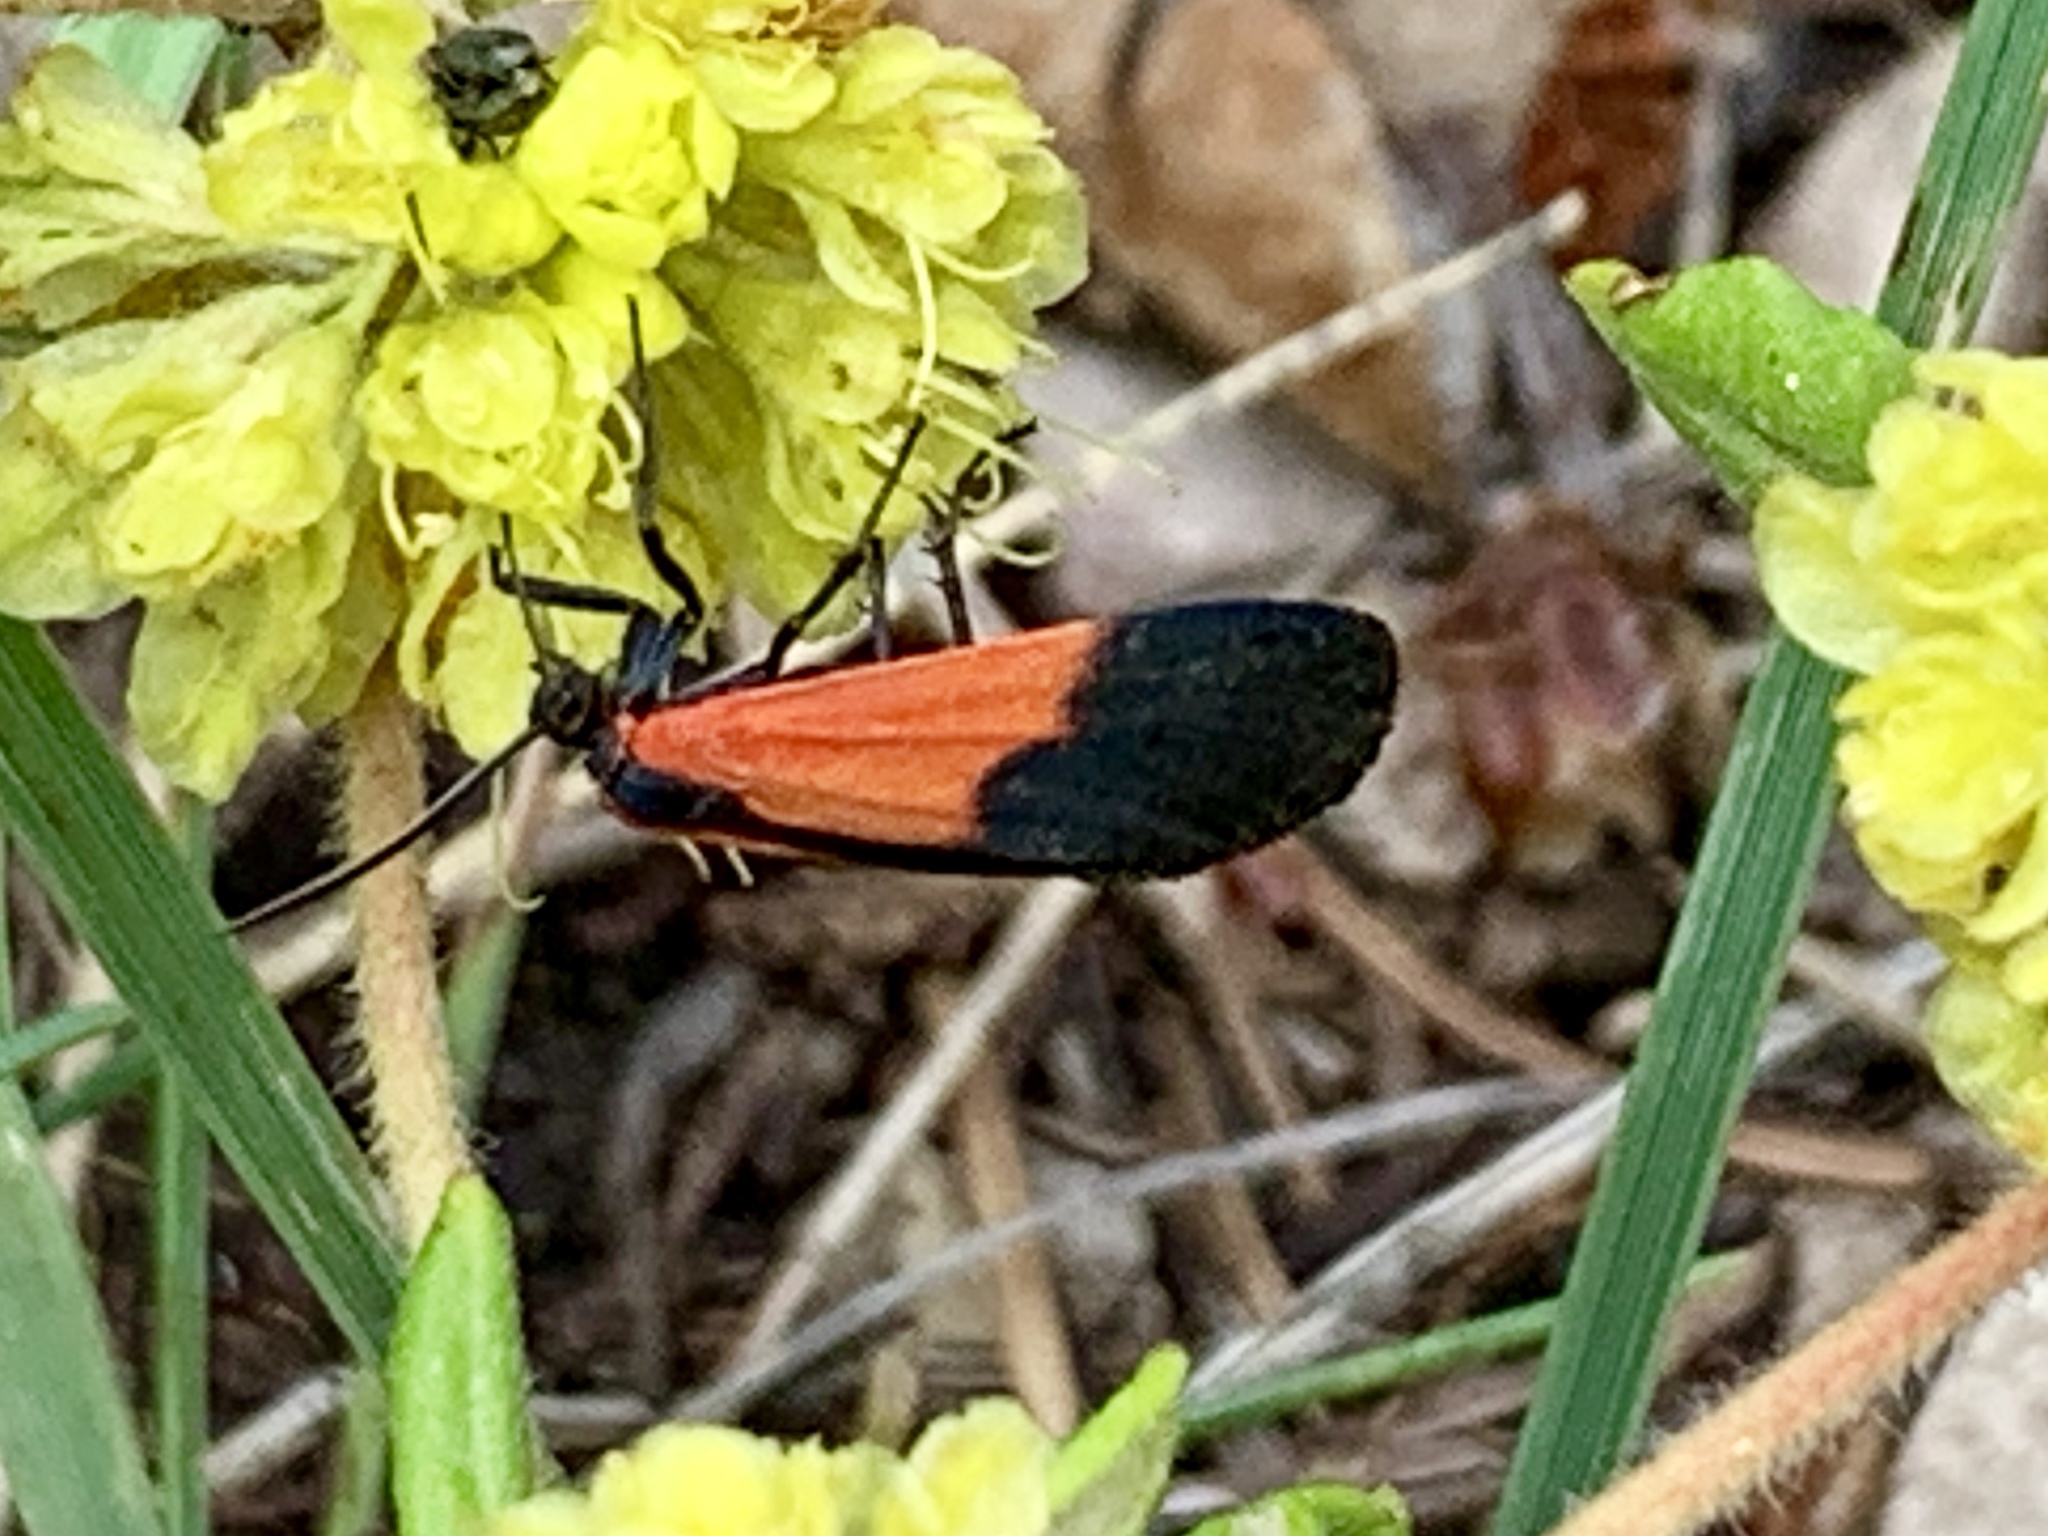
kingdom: Animalia
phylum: Arthropoda
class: Insecta
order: Lepidoptera
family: Erebidae
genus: Lycomorpha
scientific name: Lycomorpha pholus
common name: Black-and-yellow lichen moth
